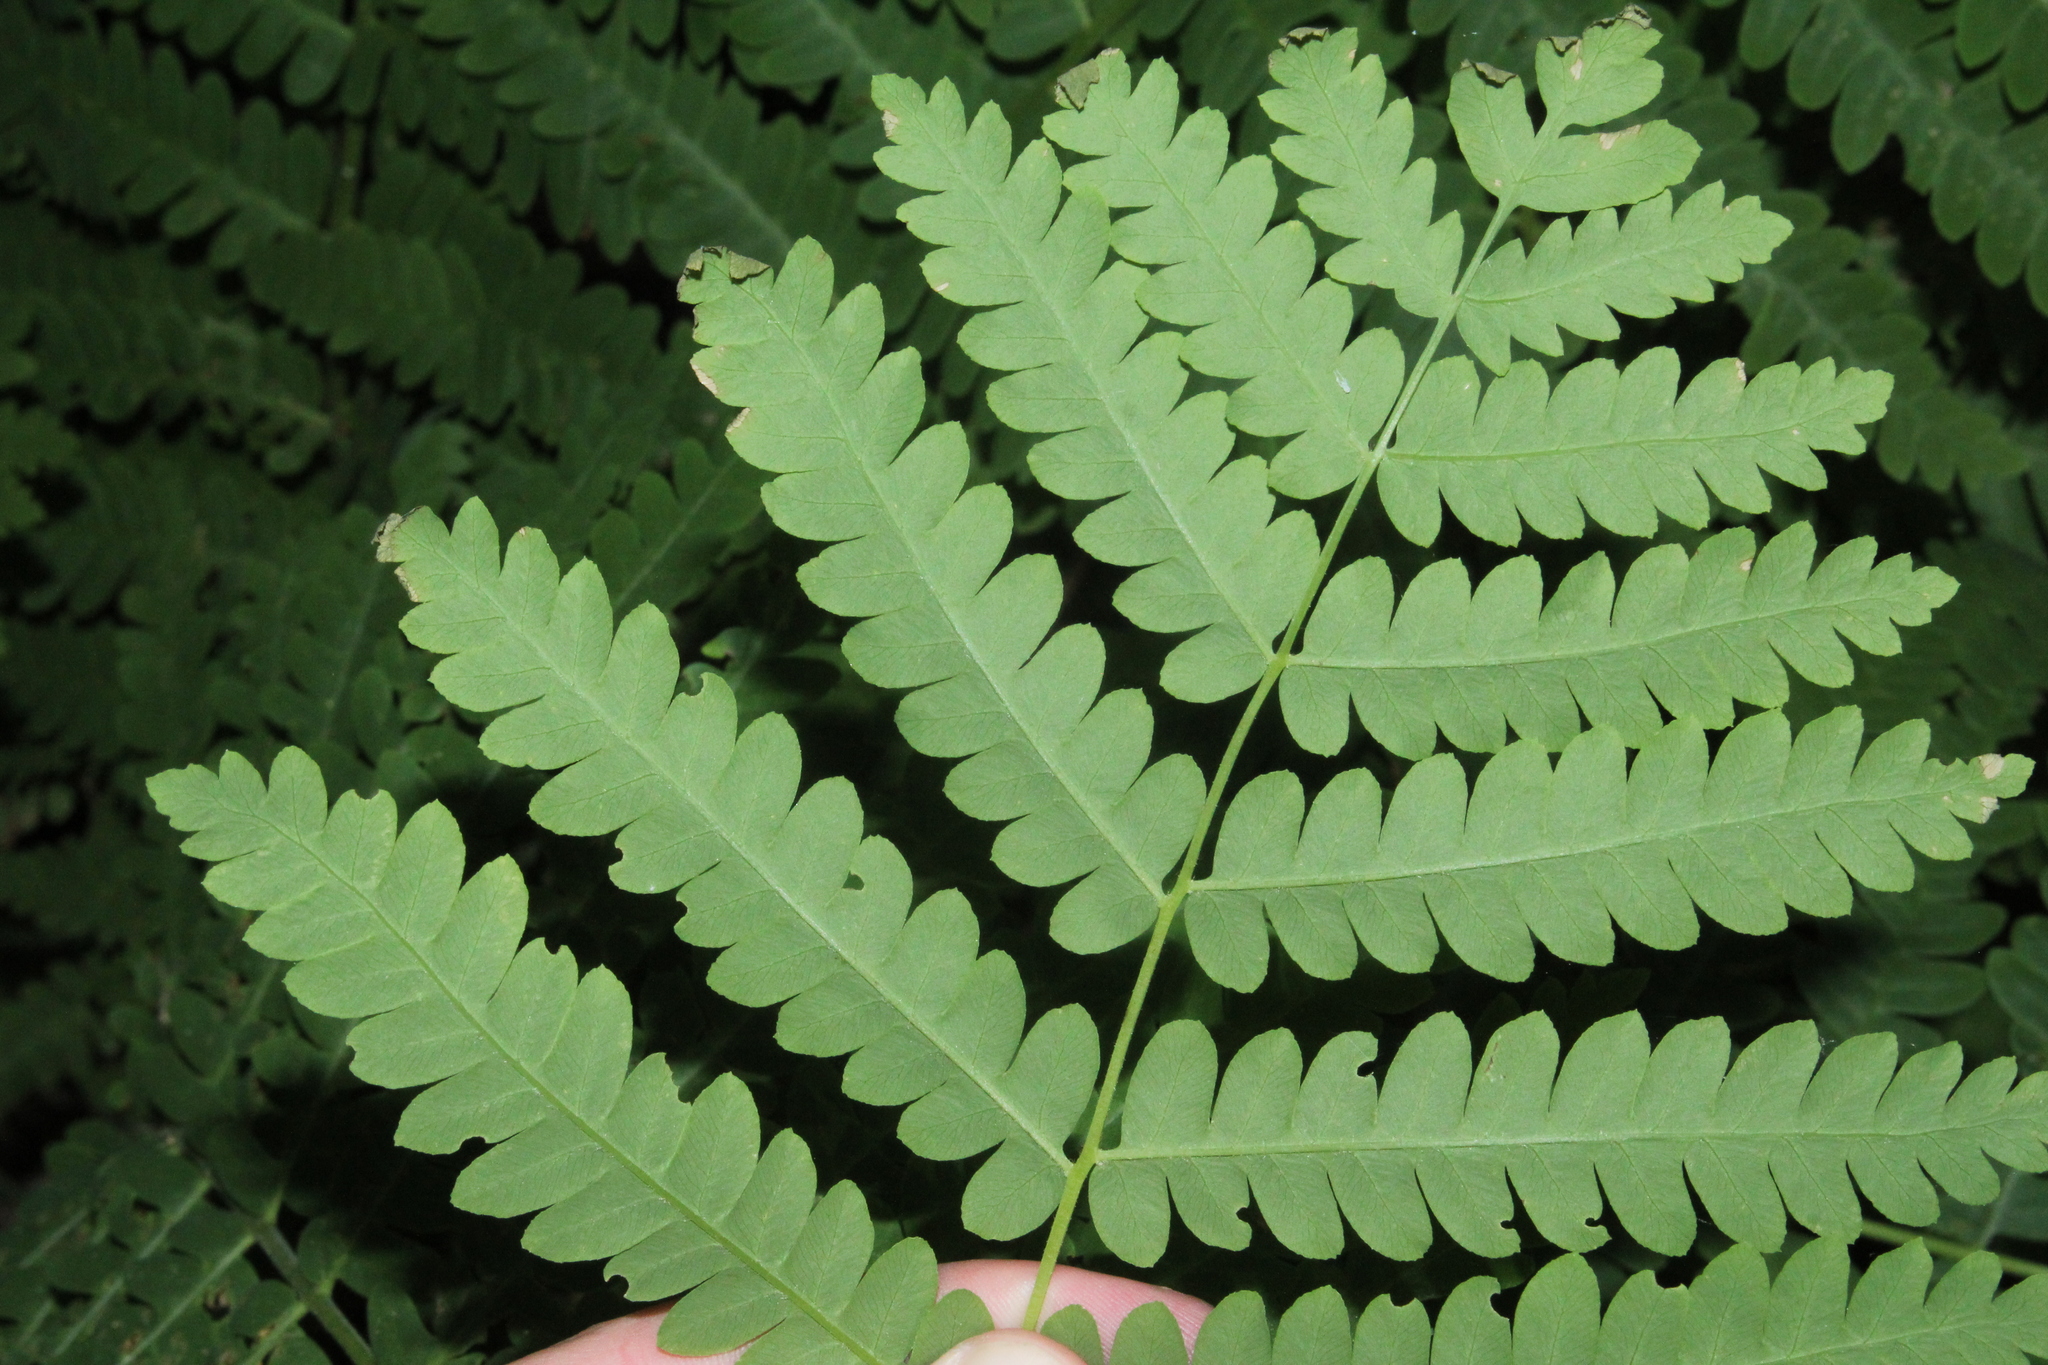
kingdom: Plantae
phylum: Tracheophyta
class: Polypodiopsida
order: Osmundales
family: Osmundaceae
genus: Claytosmunda
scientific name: Claytosmunda claytoniana
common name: Clayton's fern
